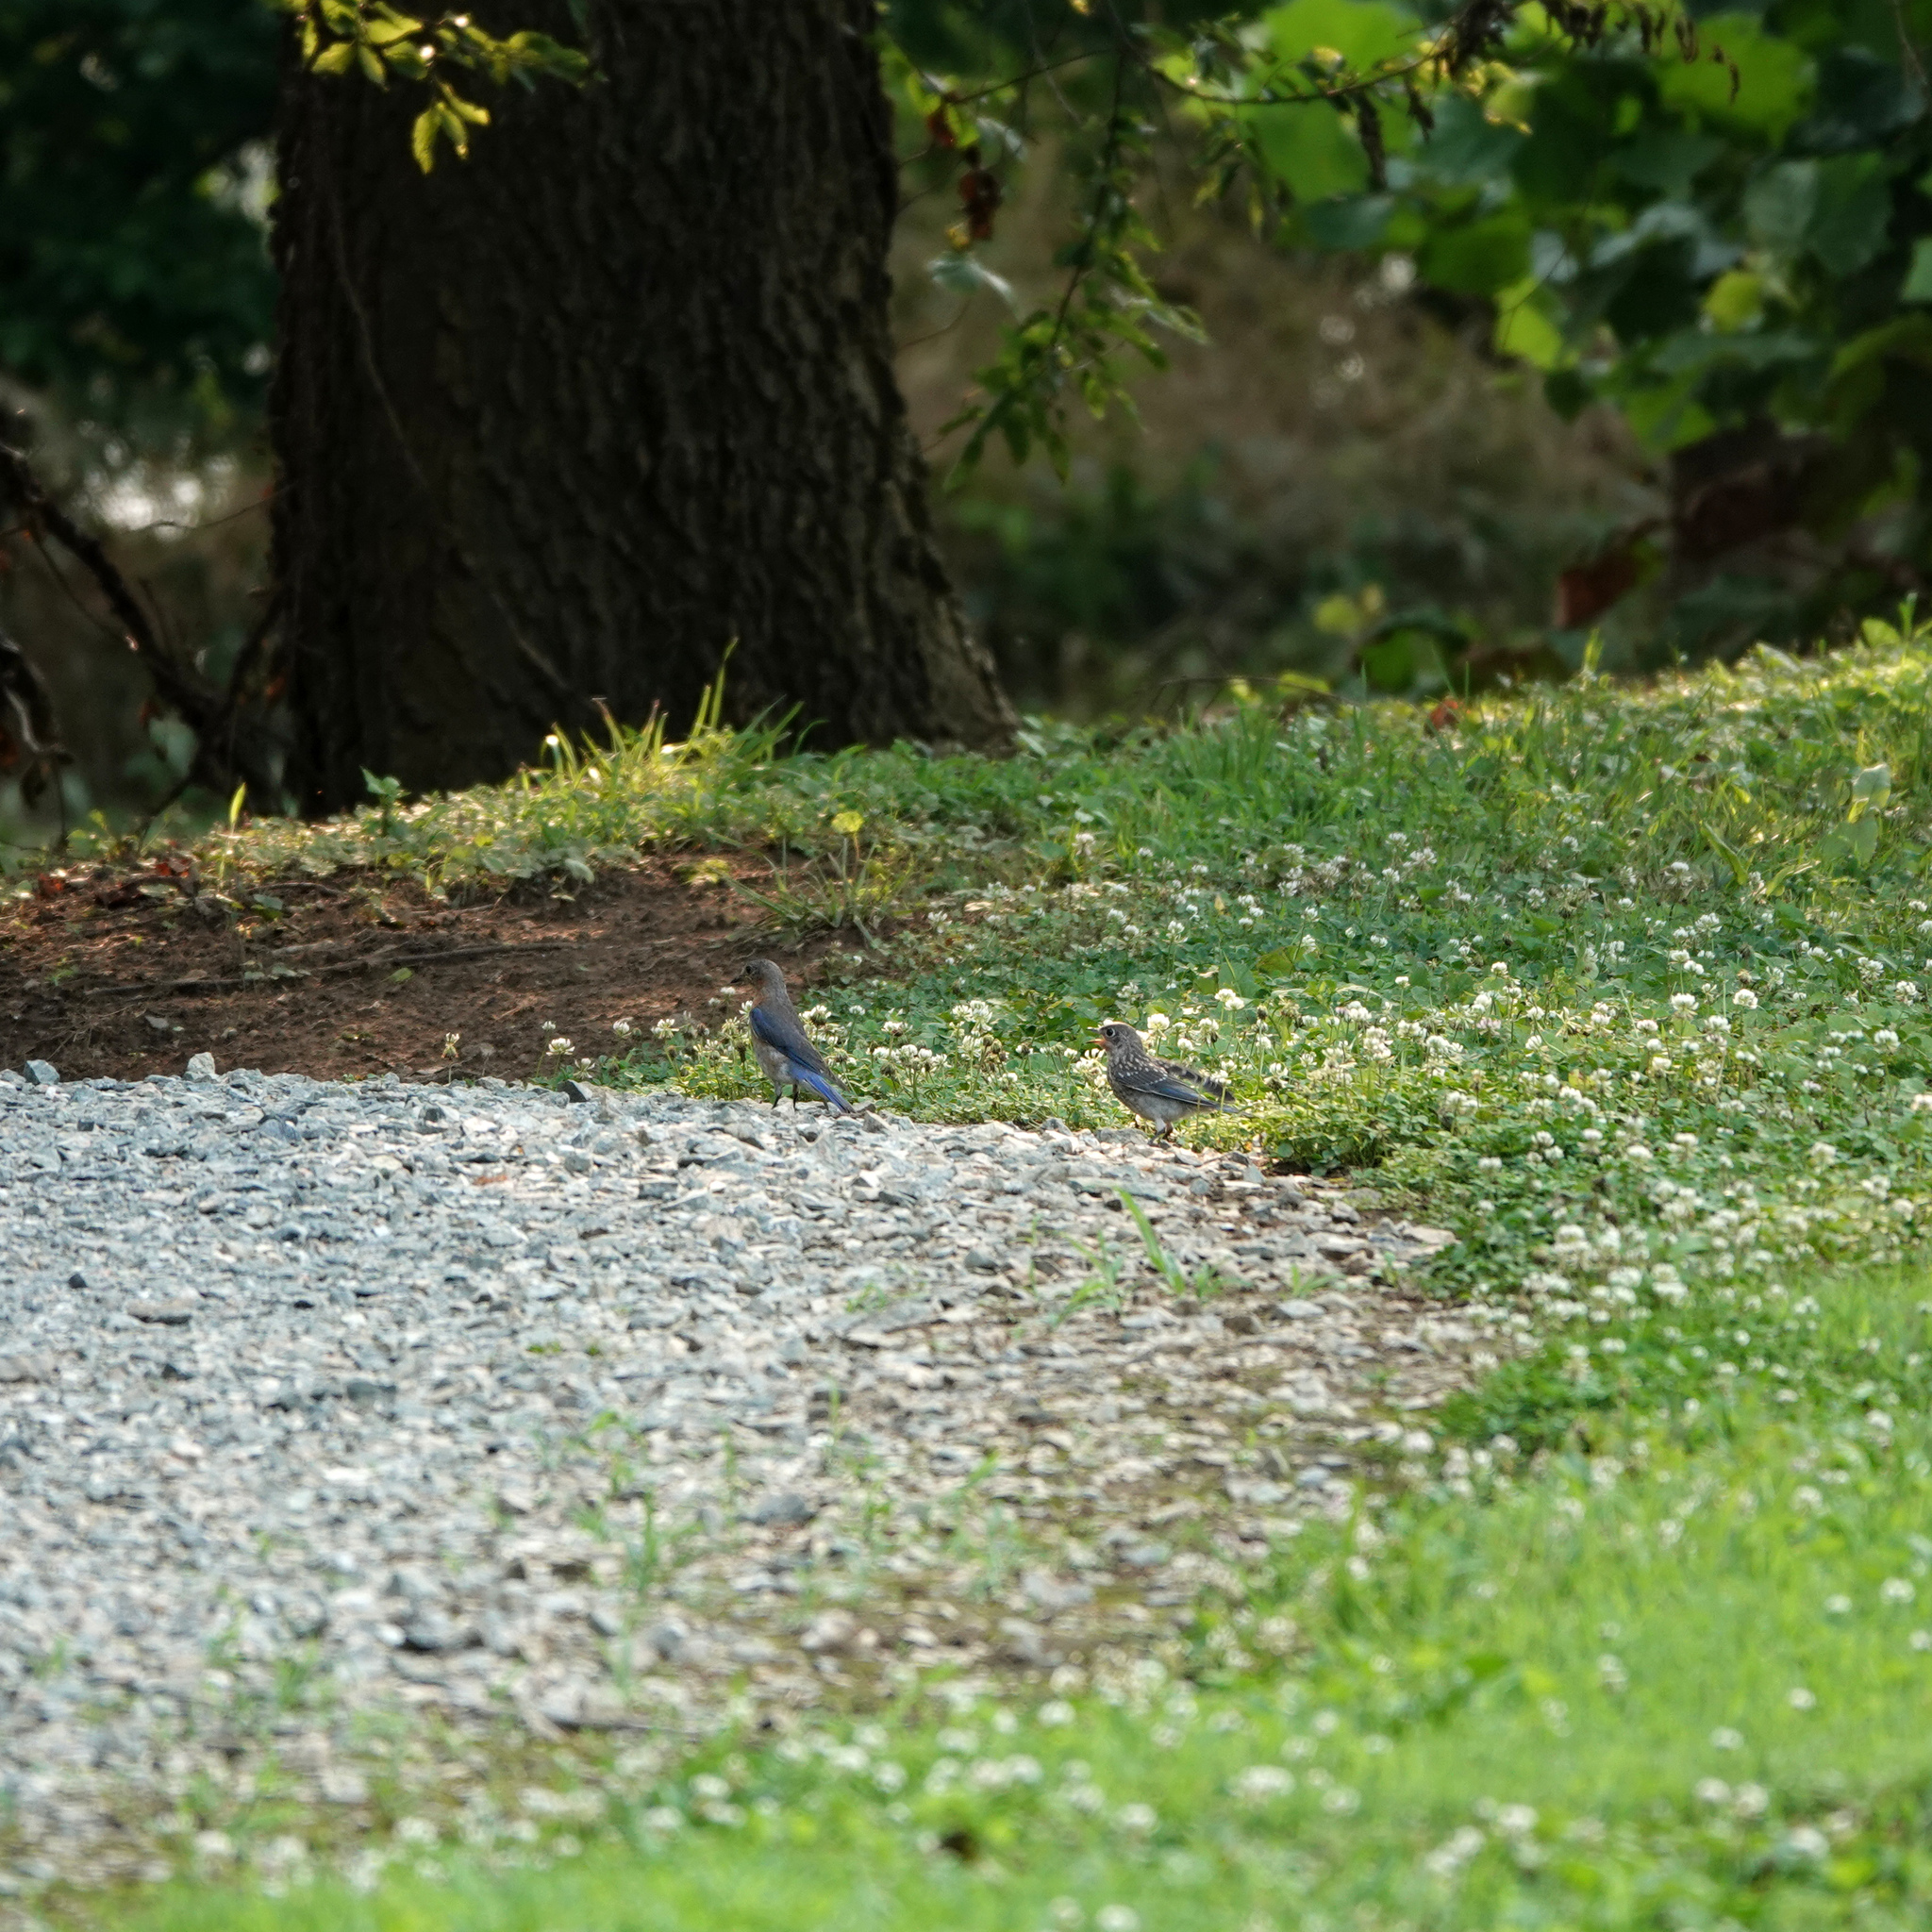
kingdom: Animalia
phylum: Chordata
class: Aves
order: Passeriformes
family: Turdidae
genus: Sialia
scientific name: Sialia sialis
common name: Eastern bluebird
